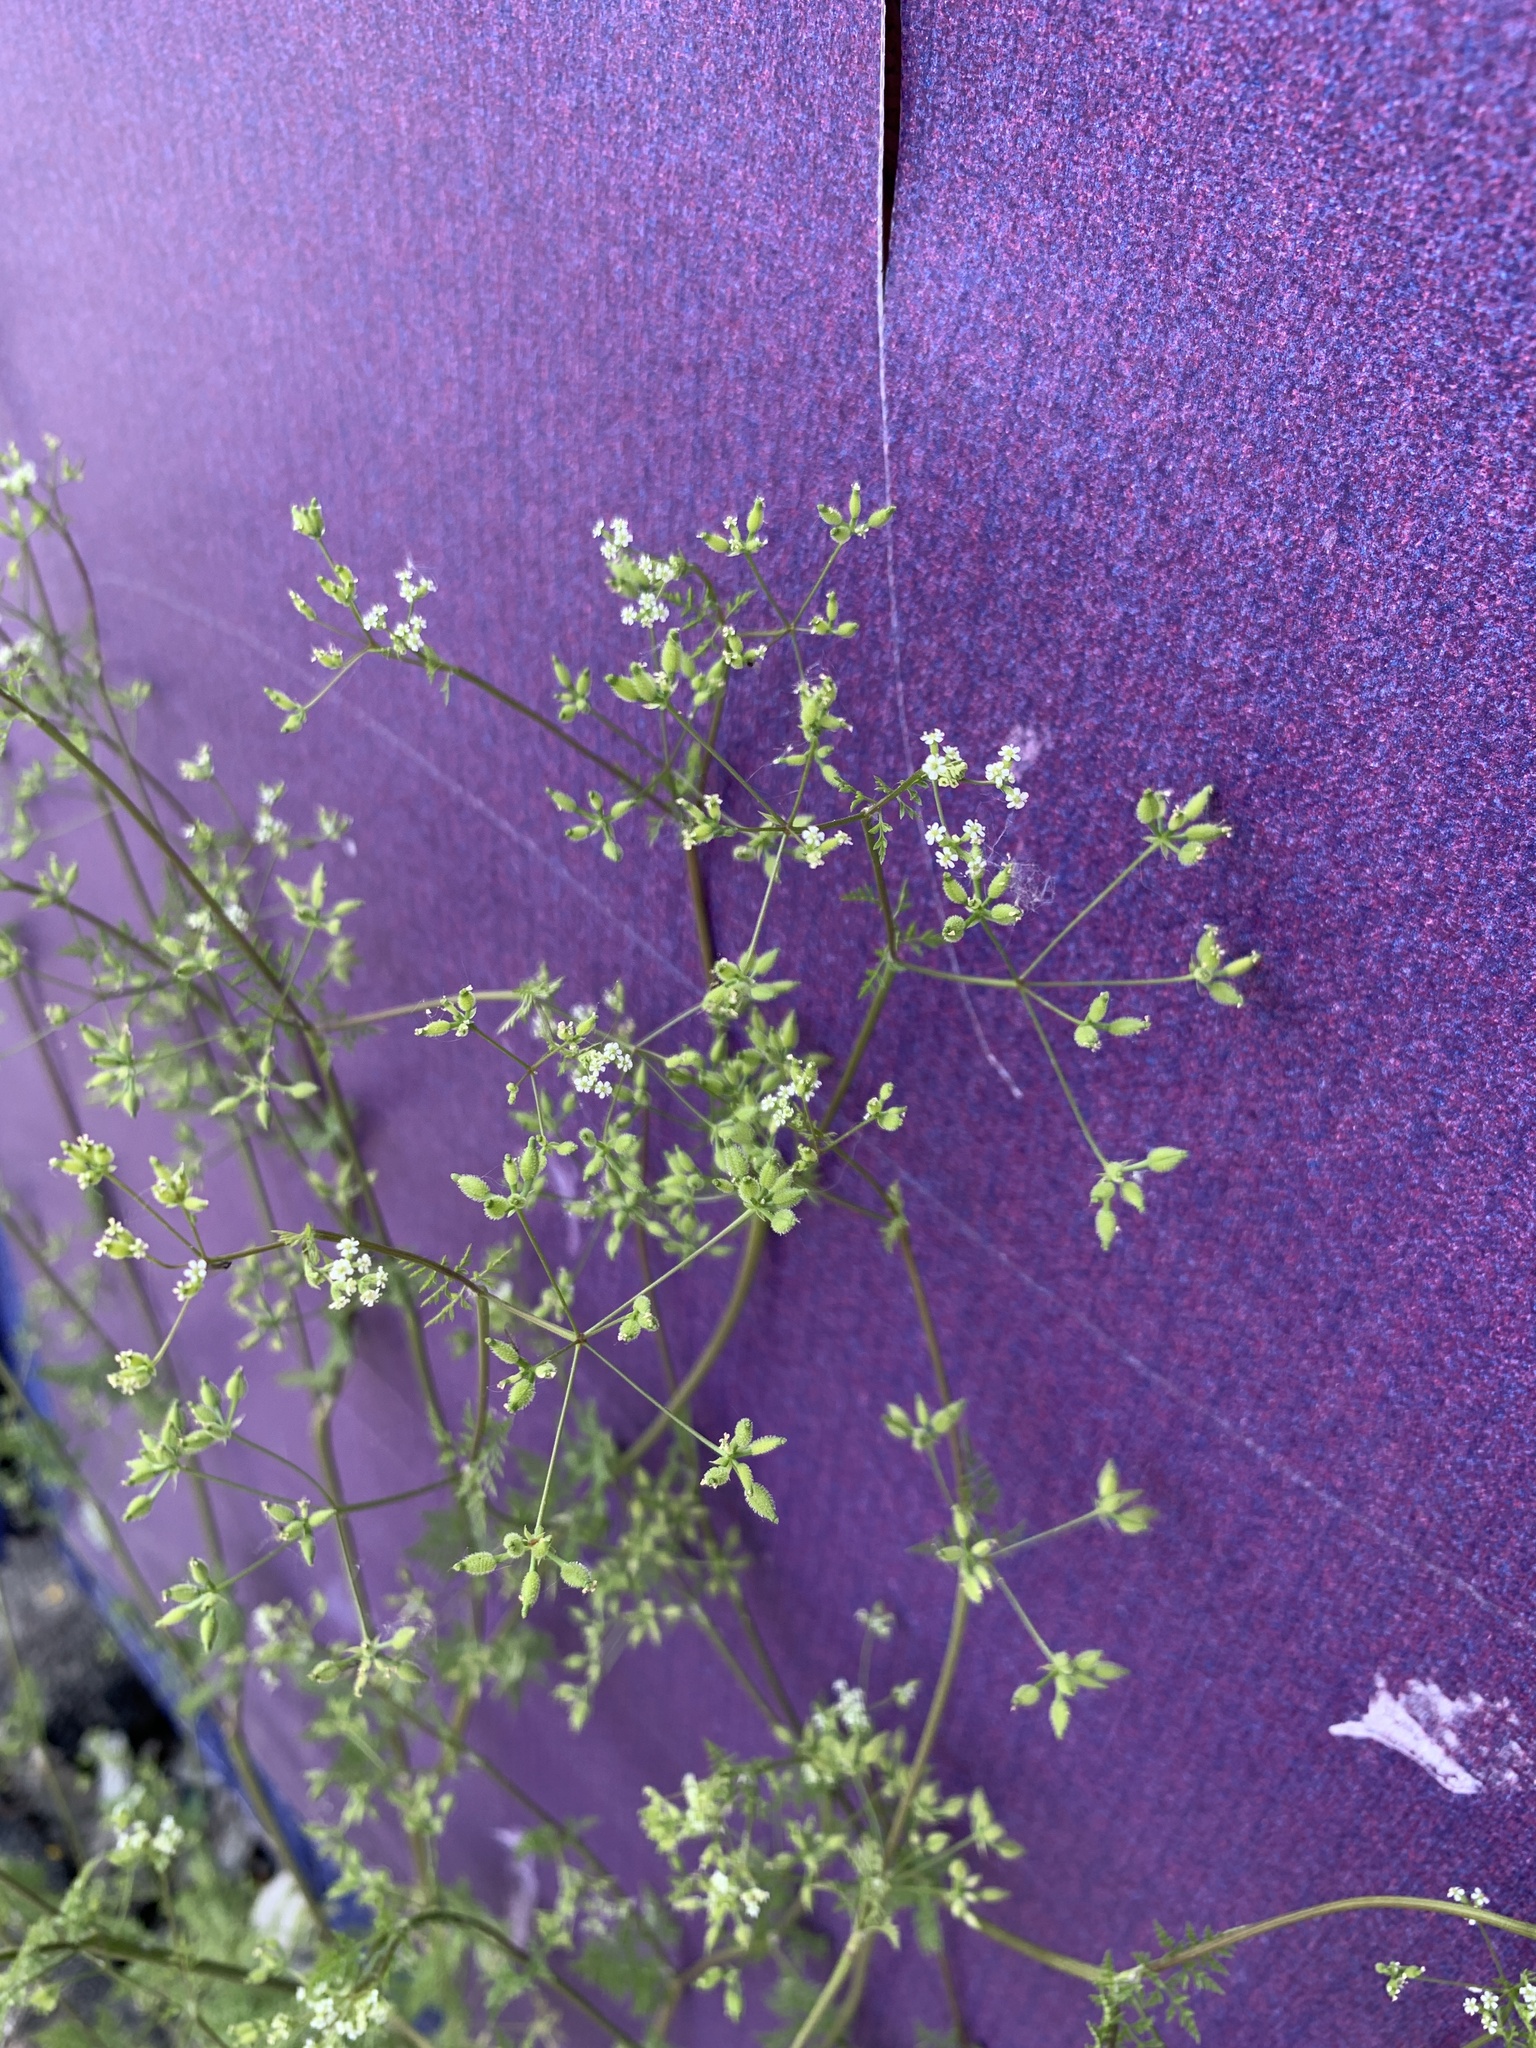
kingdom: Plantae
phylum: Tracheophyta
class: Magnoliopsida
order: Apiales
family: Apiaceae
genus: Anthriscus
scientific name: Anthriscus caucalis
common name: Bur chervil
